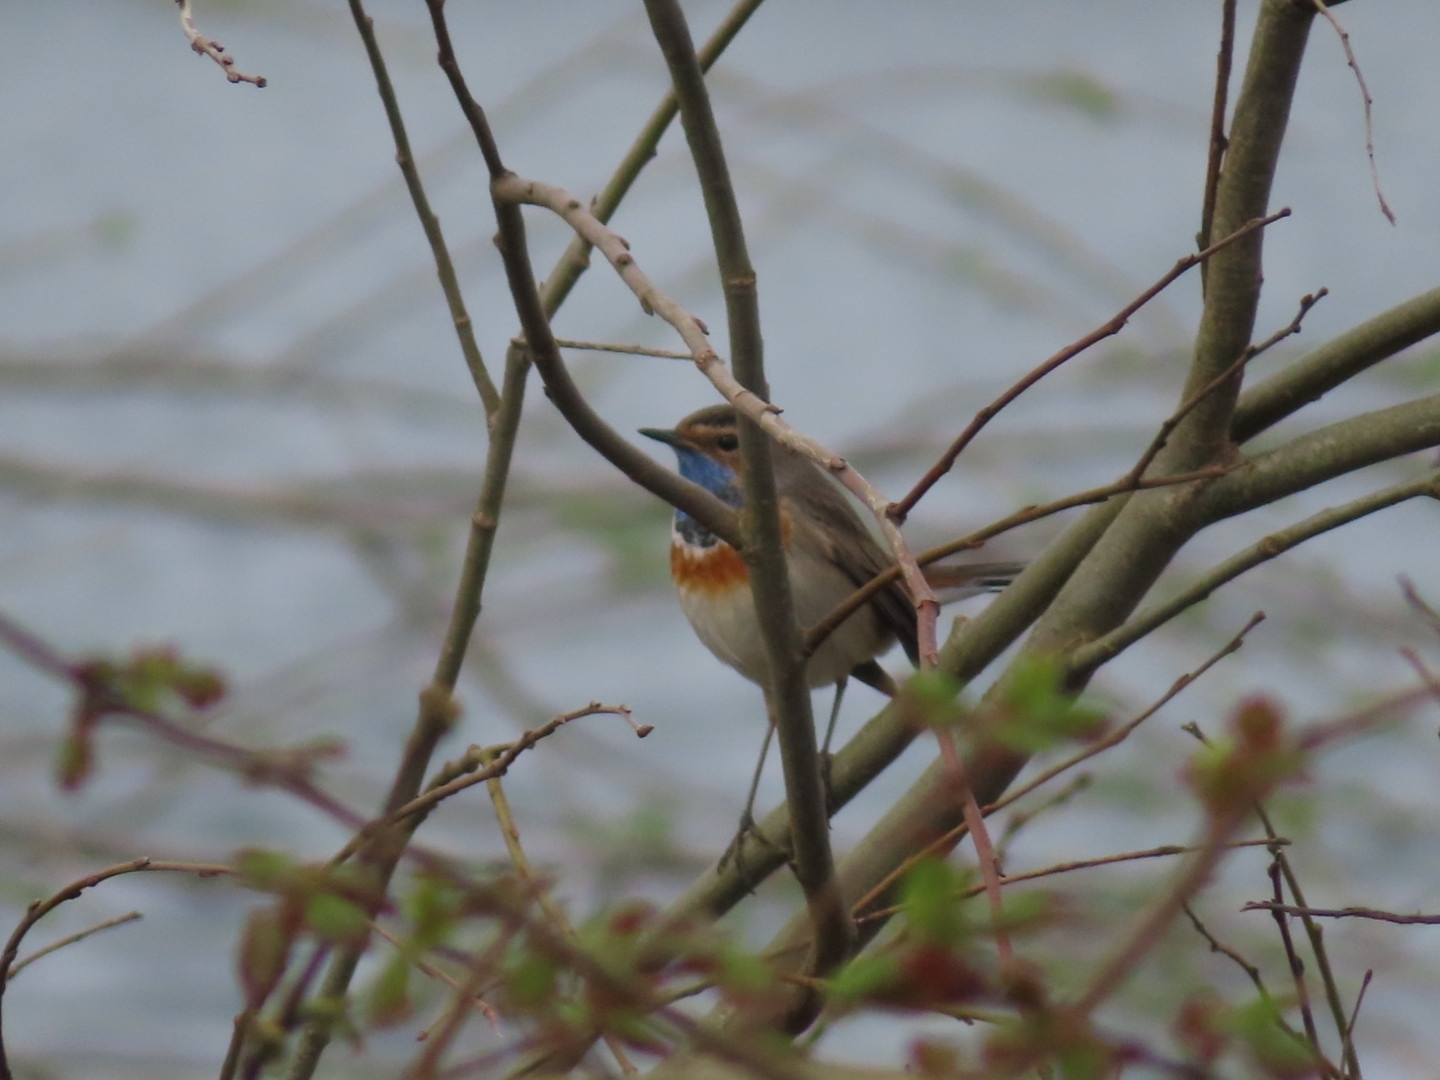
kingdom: Animalia
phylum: Chordata
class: Aves
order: Passeriformes
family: Muscicapidae
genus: Luscinia
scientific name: Luscinia svecica
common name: Bluethroat
